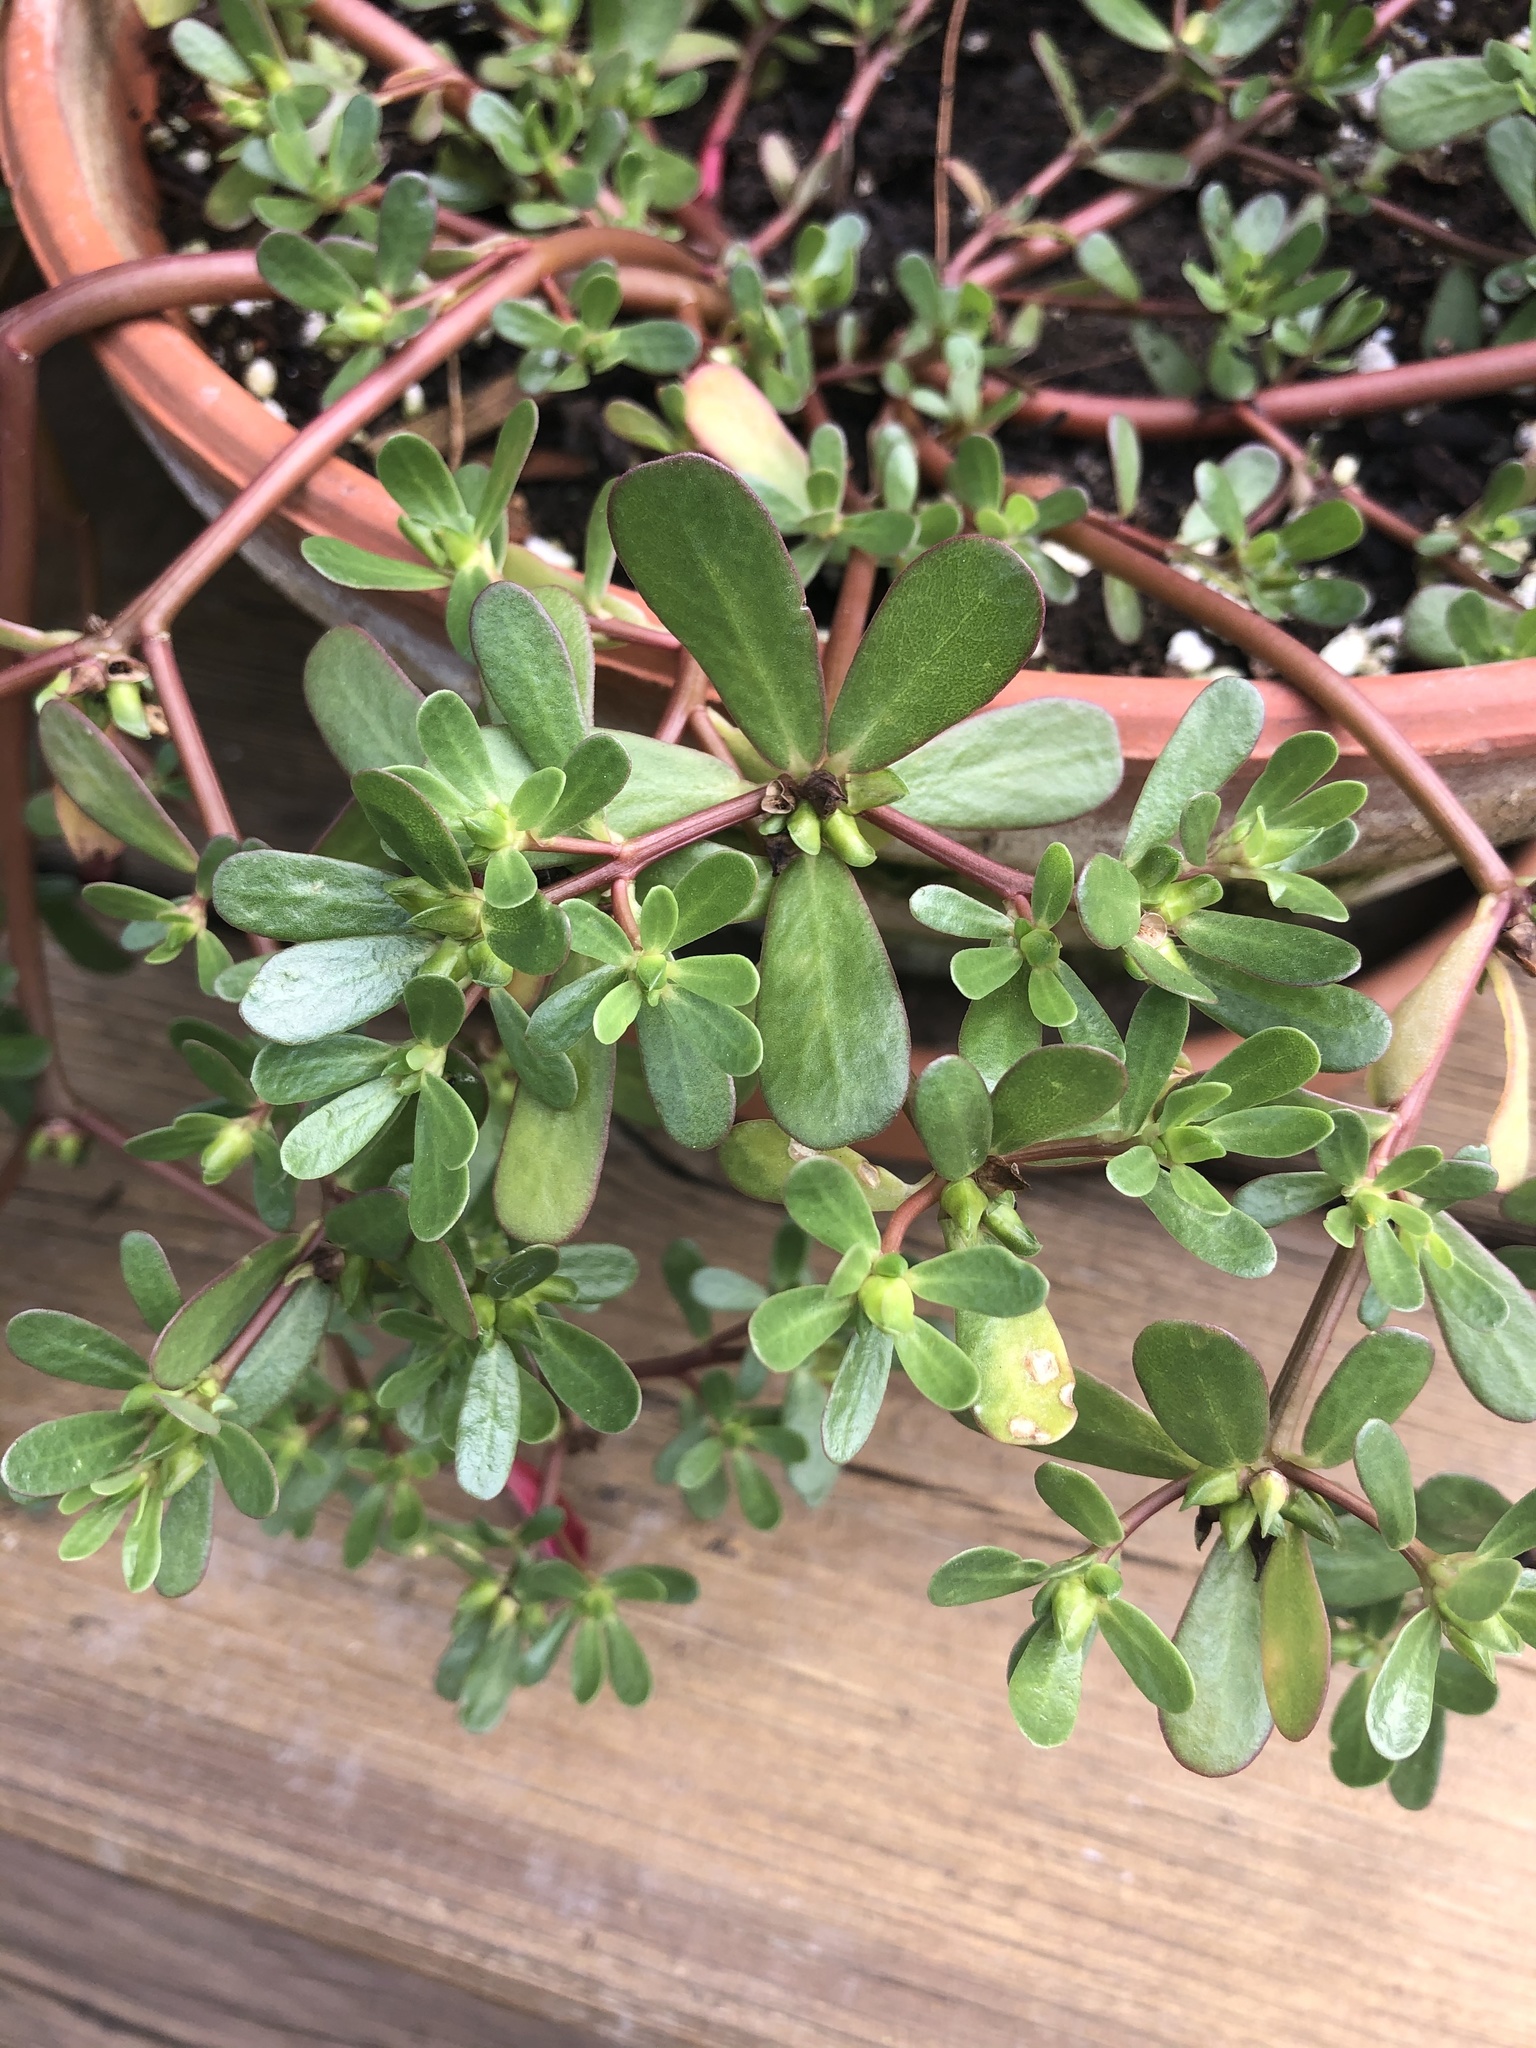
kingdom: Plantae
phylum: Tracheophyta
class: Magnoliopsida
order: Caryophyllales
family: Portulacaceae
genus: Portulaca
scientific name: Portulaca oleracea
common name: Common purslane
